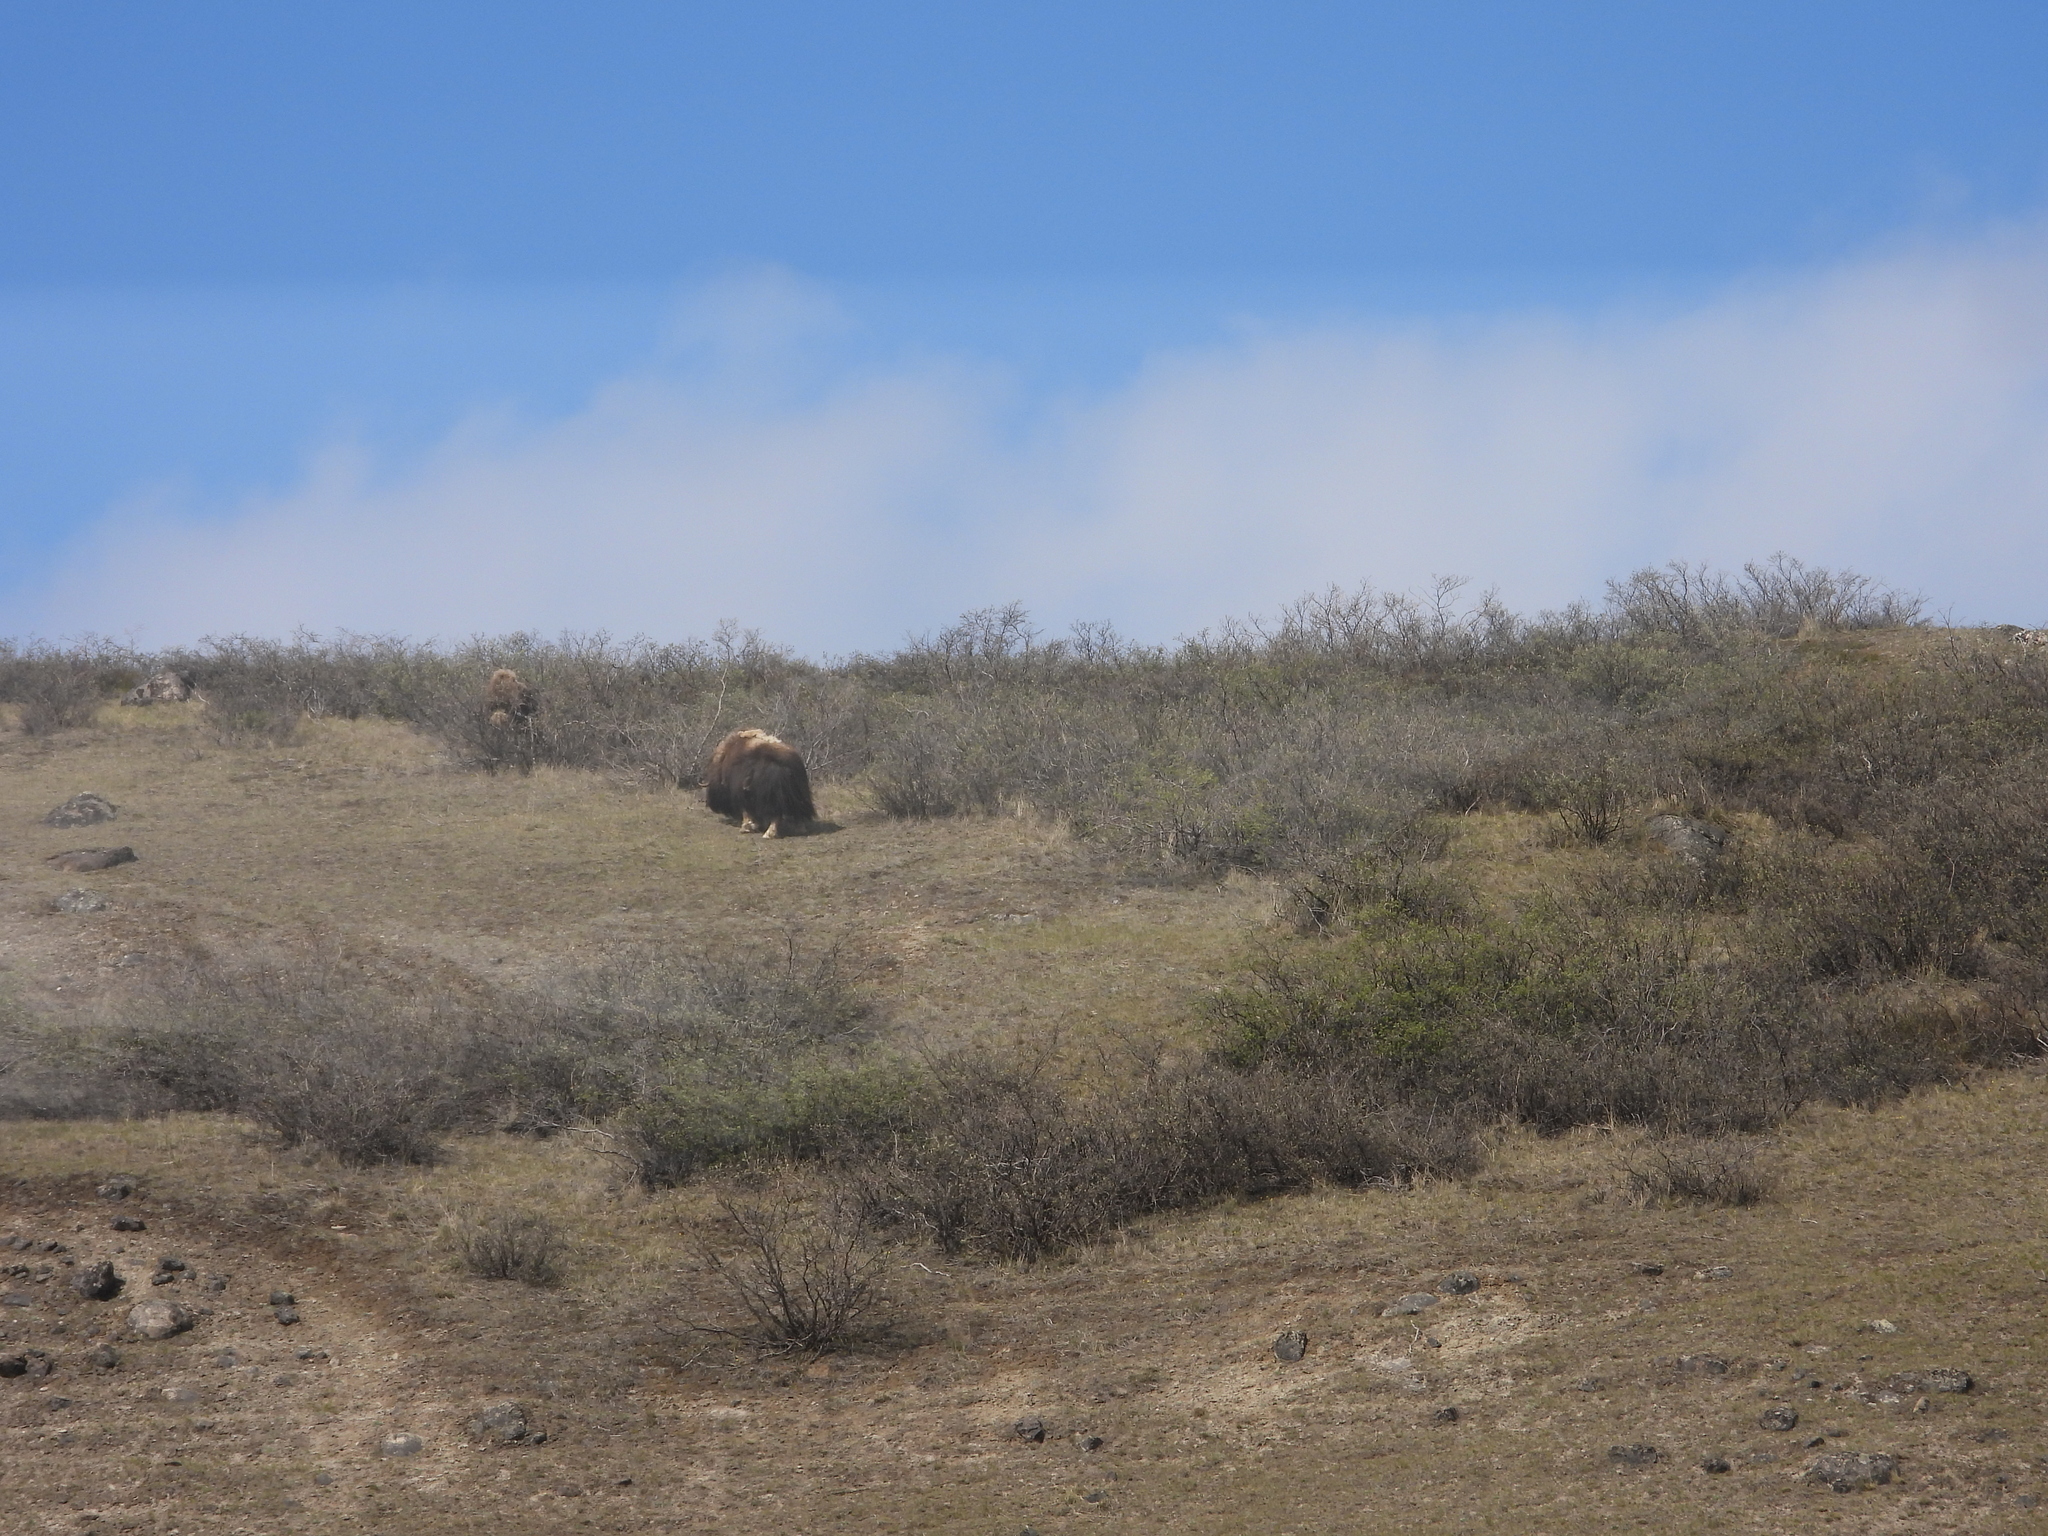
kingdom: Animalia
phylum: Chordata
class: Mammalia
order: Artiodactyla
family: Bovidae
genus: Ovibos
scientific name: Ovibos moschatus
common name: Muskox
